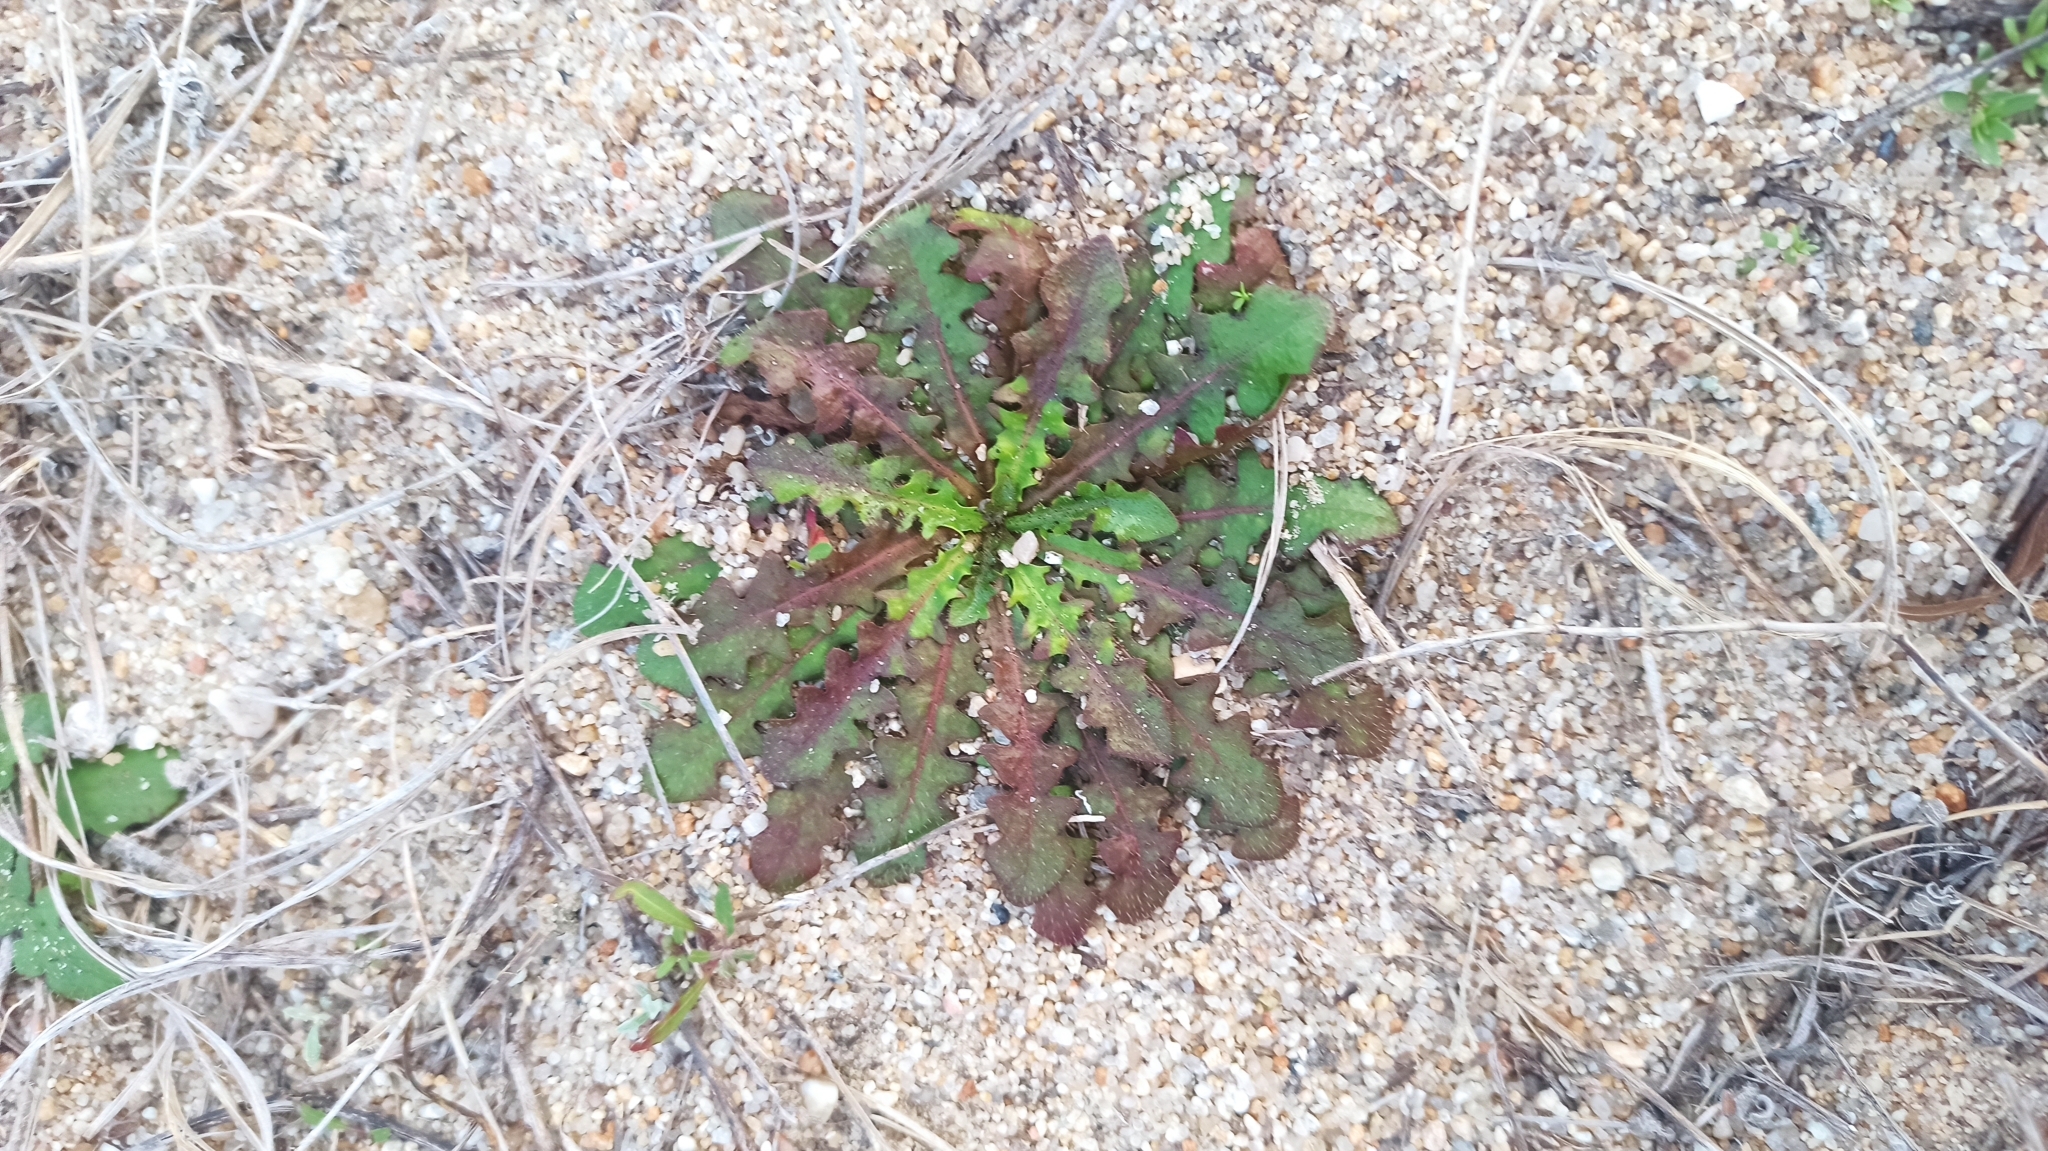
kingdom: Plantae
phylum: Tracheophyta
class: Magnoliopsida
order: Asterales
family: Asteraceae
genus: Hypochaeris
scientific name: Hypochaeris radicata
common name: Flatweed
